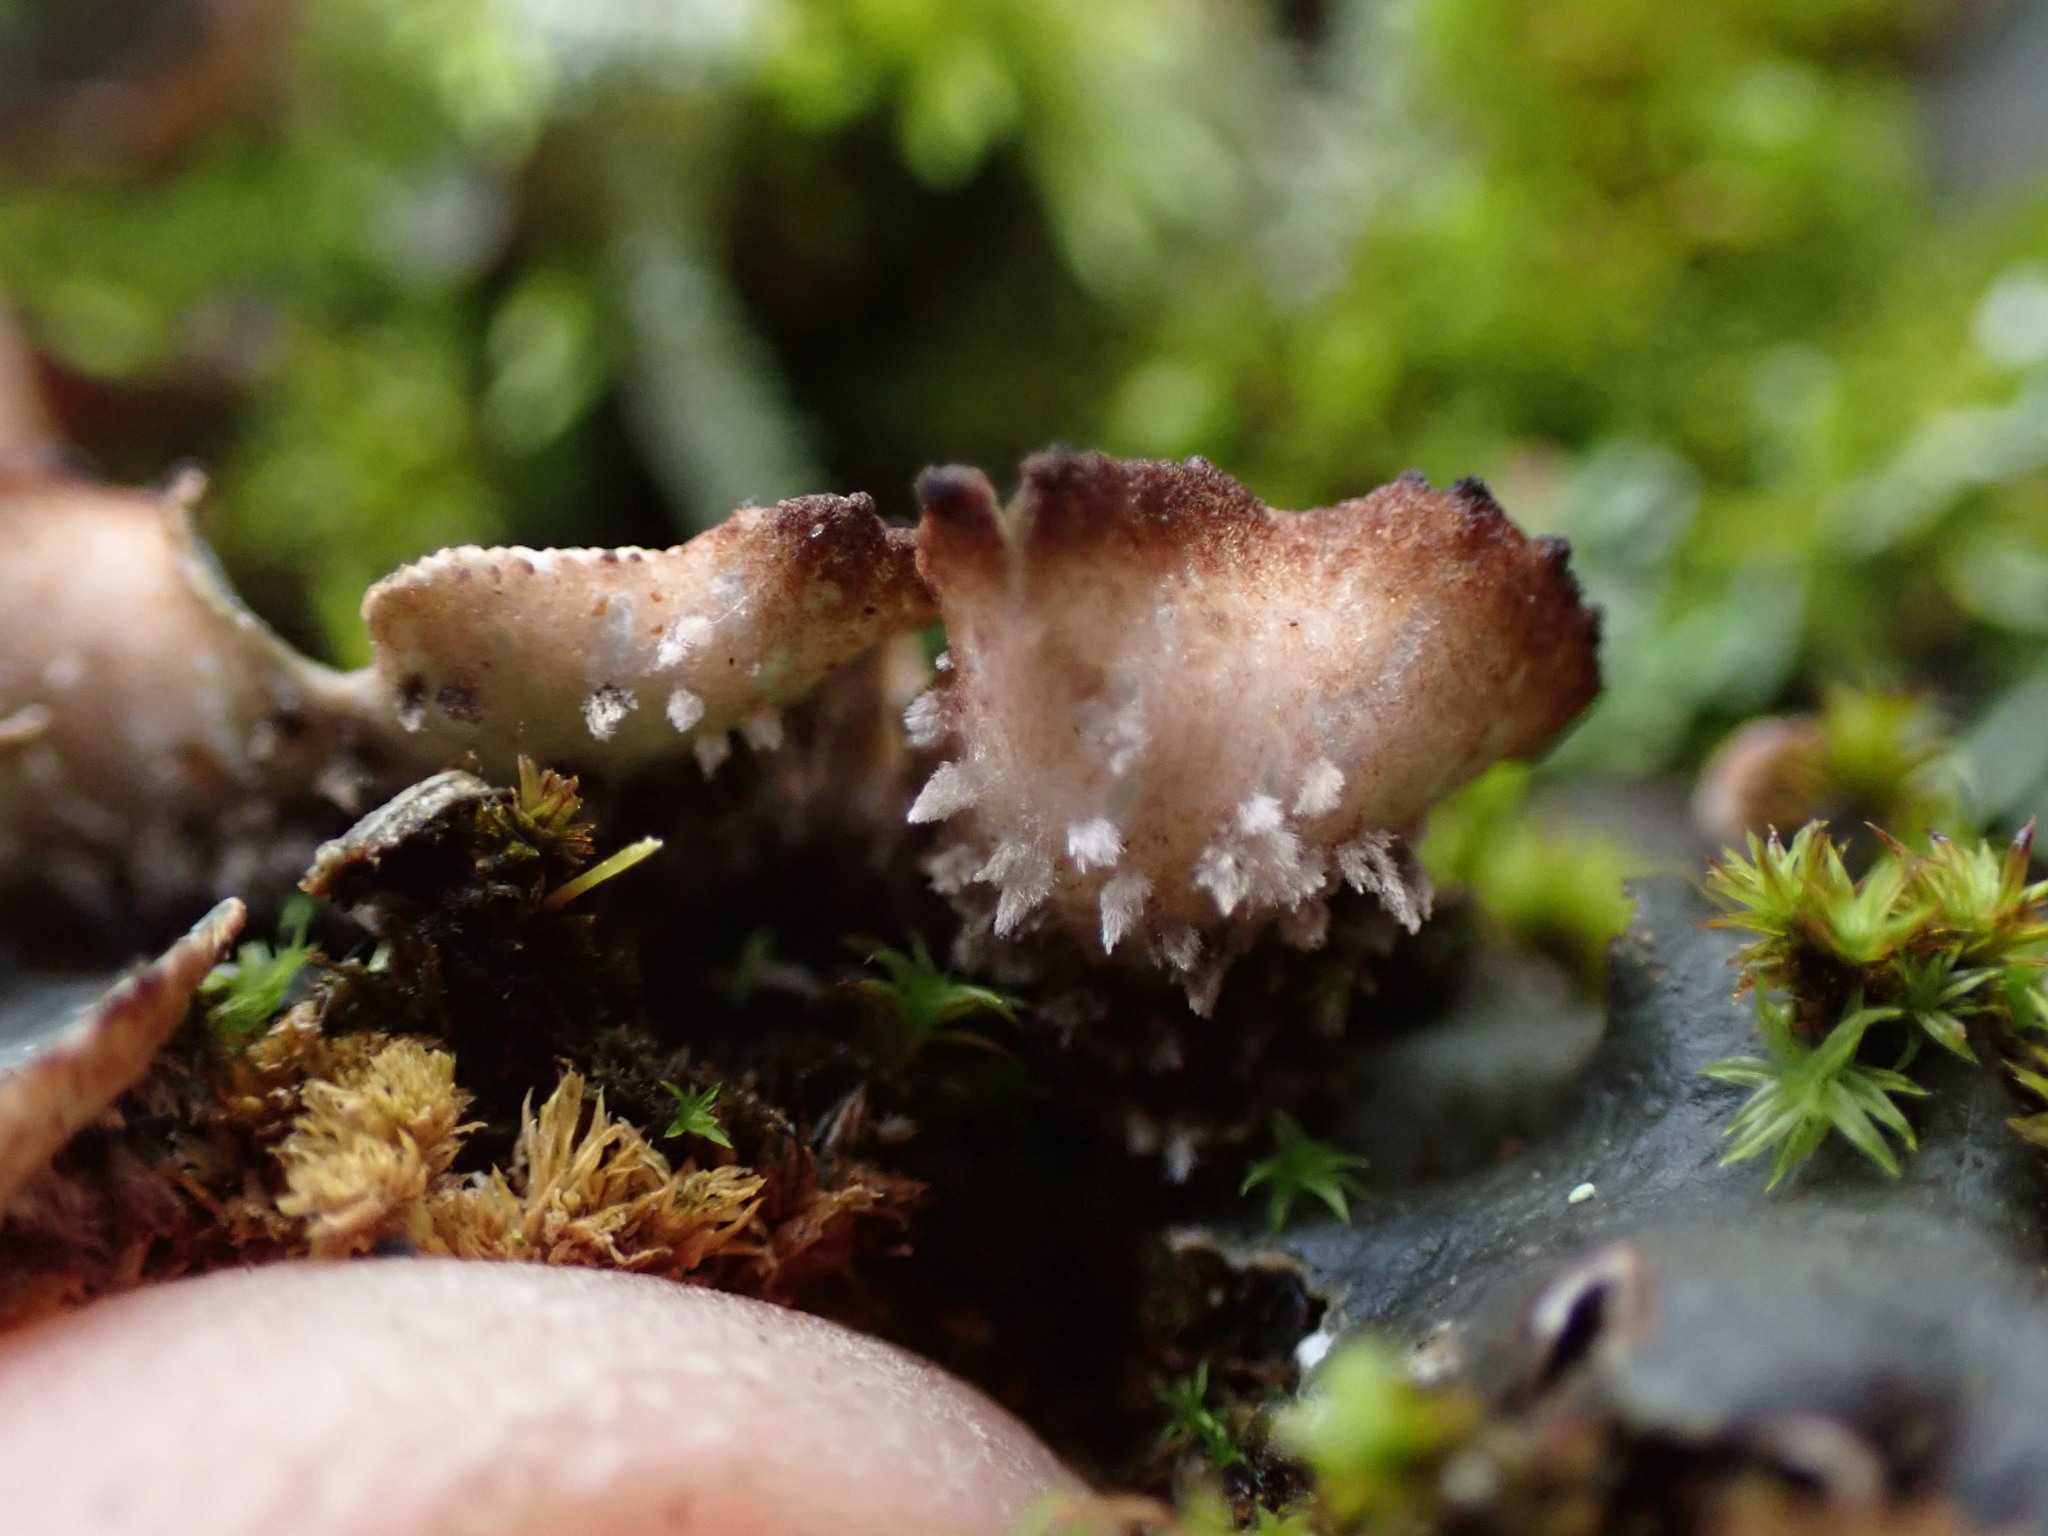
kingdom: Fungi
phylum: Ascomycota
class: Lecanoromycetes
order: Peltigerales
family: Peltigeraceae
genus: Peltigera
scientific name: Peltigera neckeri
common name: Blacksaddle pelt lichen
